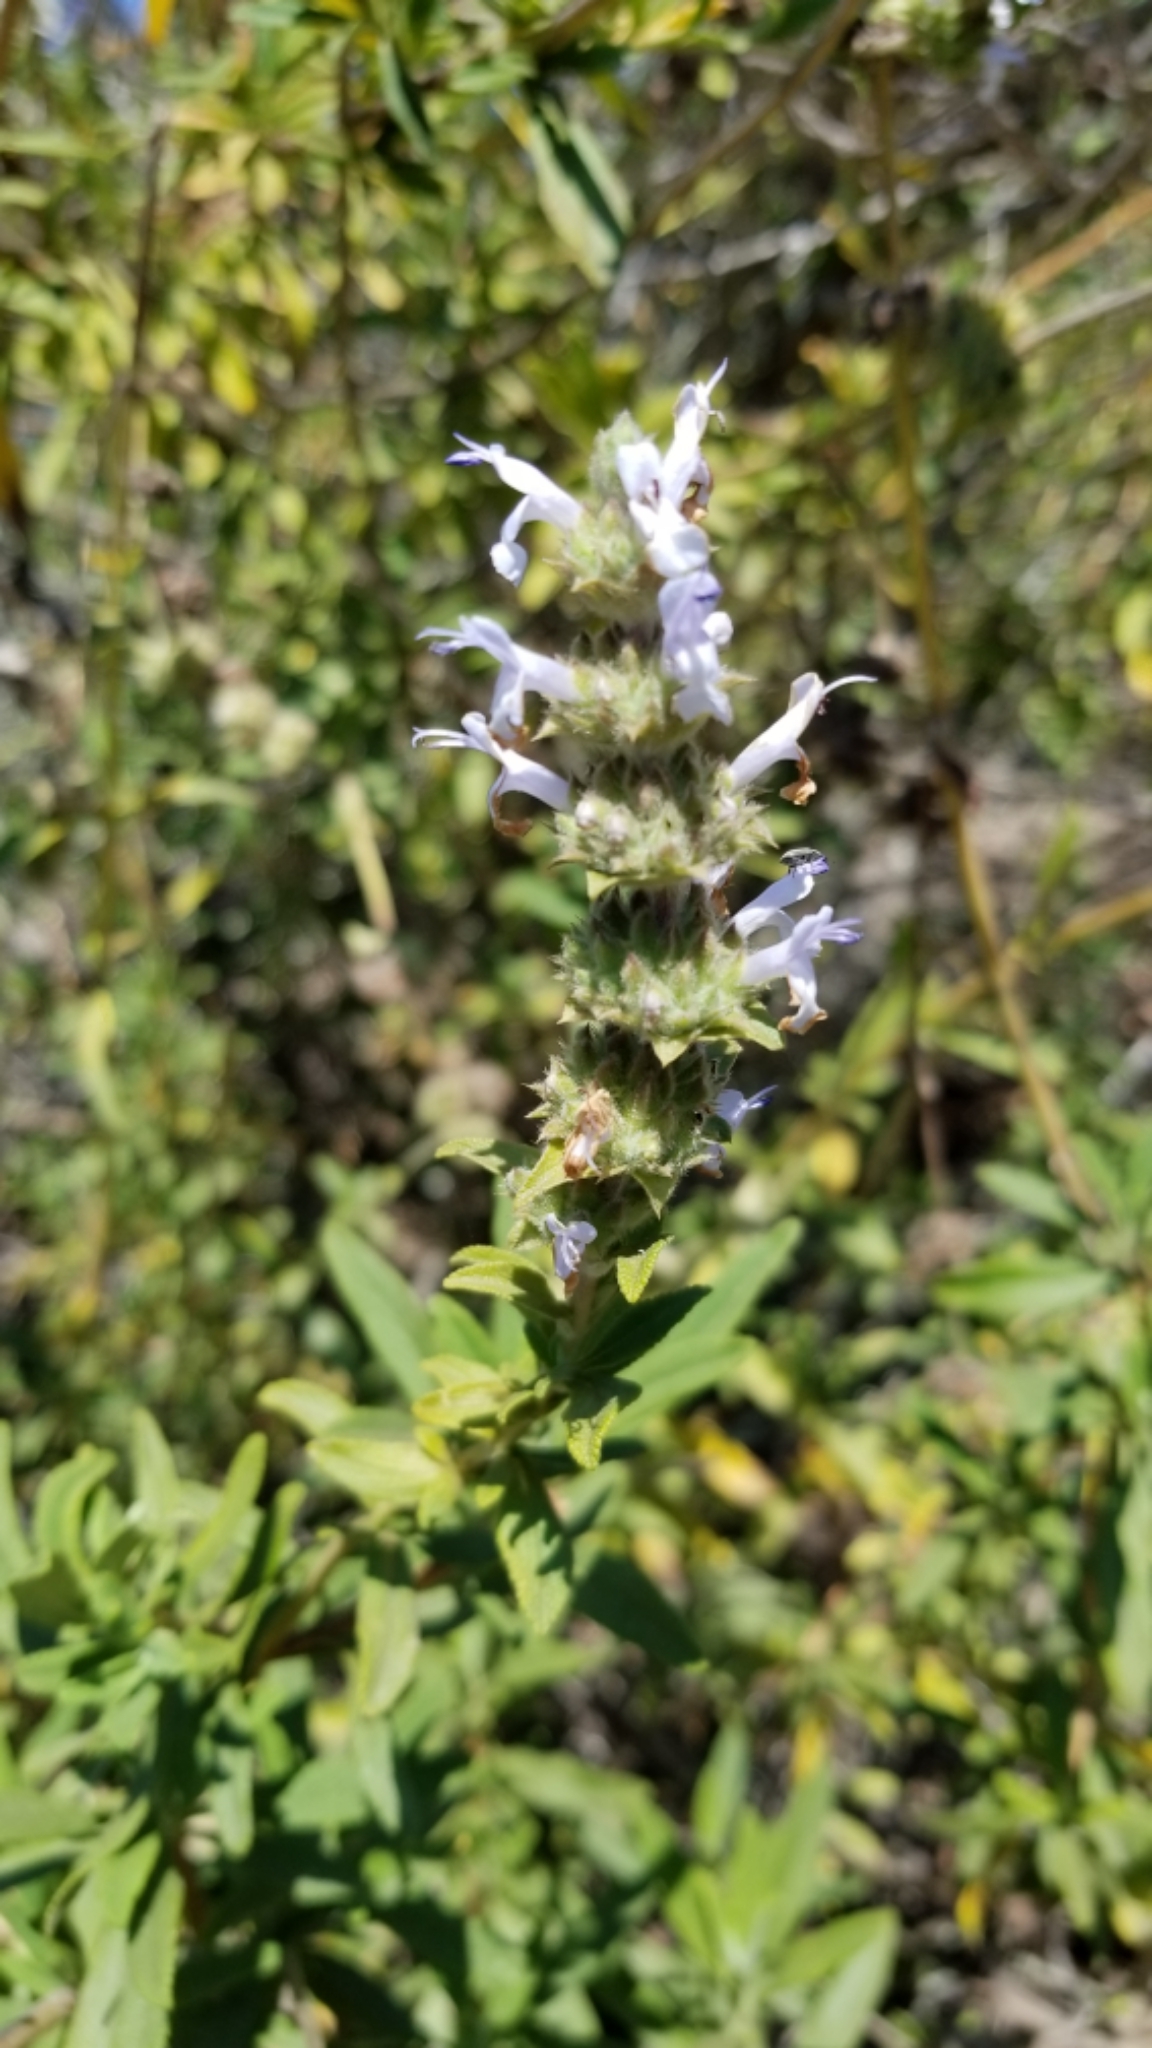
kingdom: Plantae
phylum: Tracheophyta
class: Magnoliopsida
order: Lamiales
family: Lamiaceae
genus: Salvia
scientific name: Salvia mellifera
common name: Black sage
